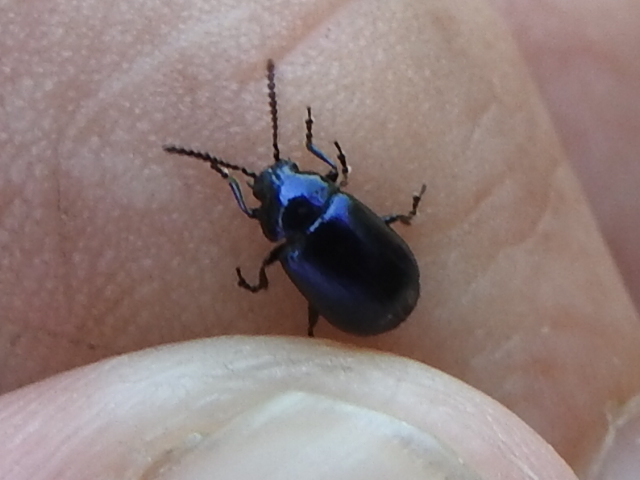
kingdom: Animalia
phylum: Arthropoda
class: Insecta
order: Coleoptera
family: Chrysomelidae
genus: Gastrophysa
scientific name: Gastrophysa cyanea
